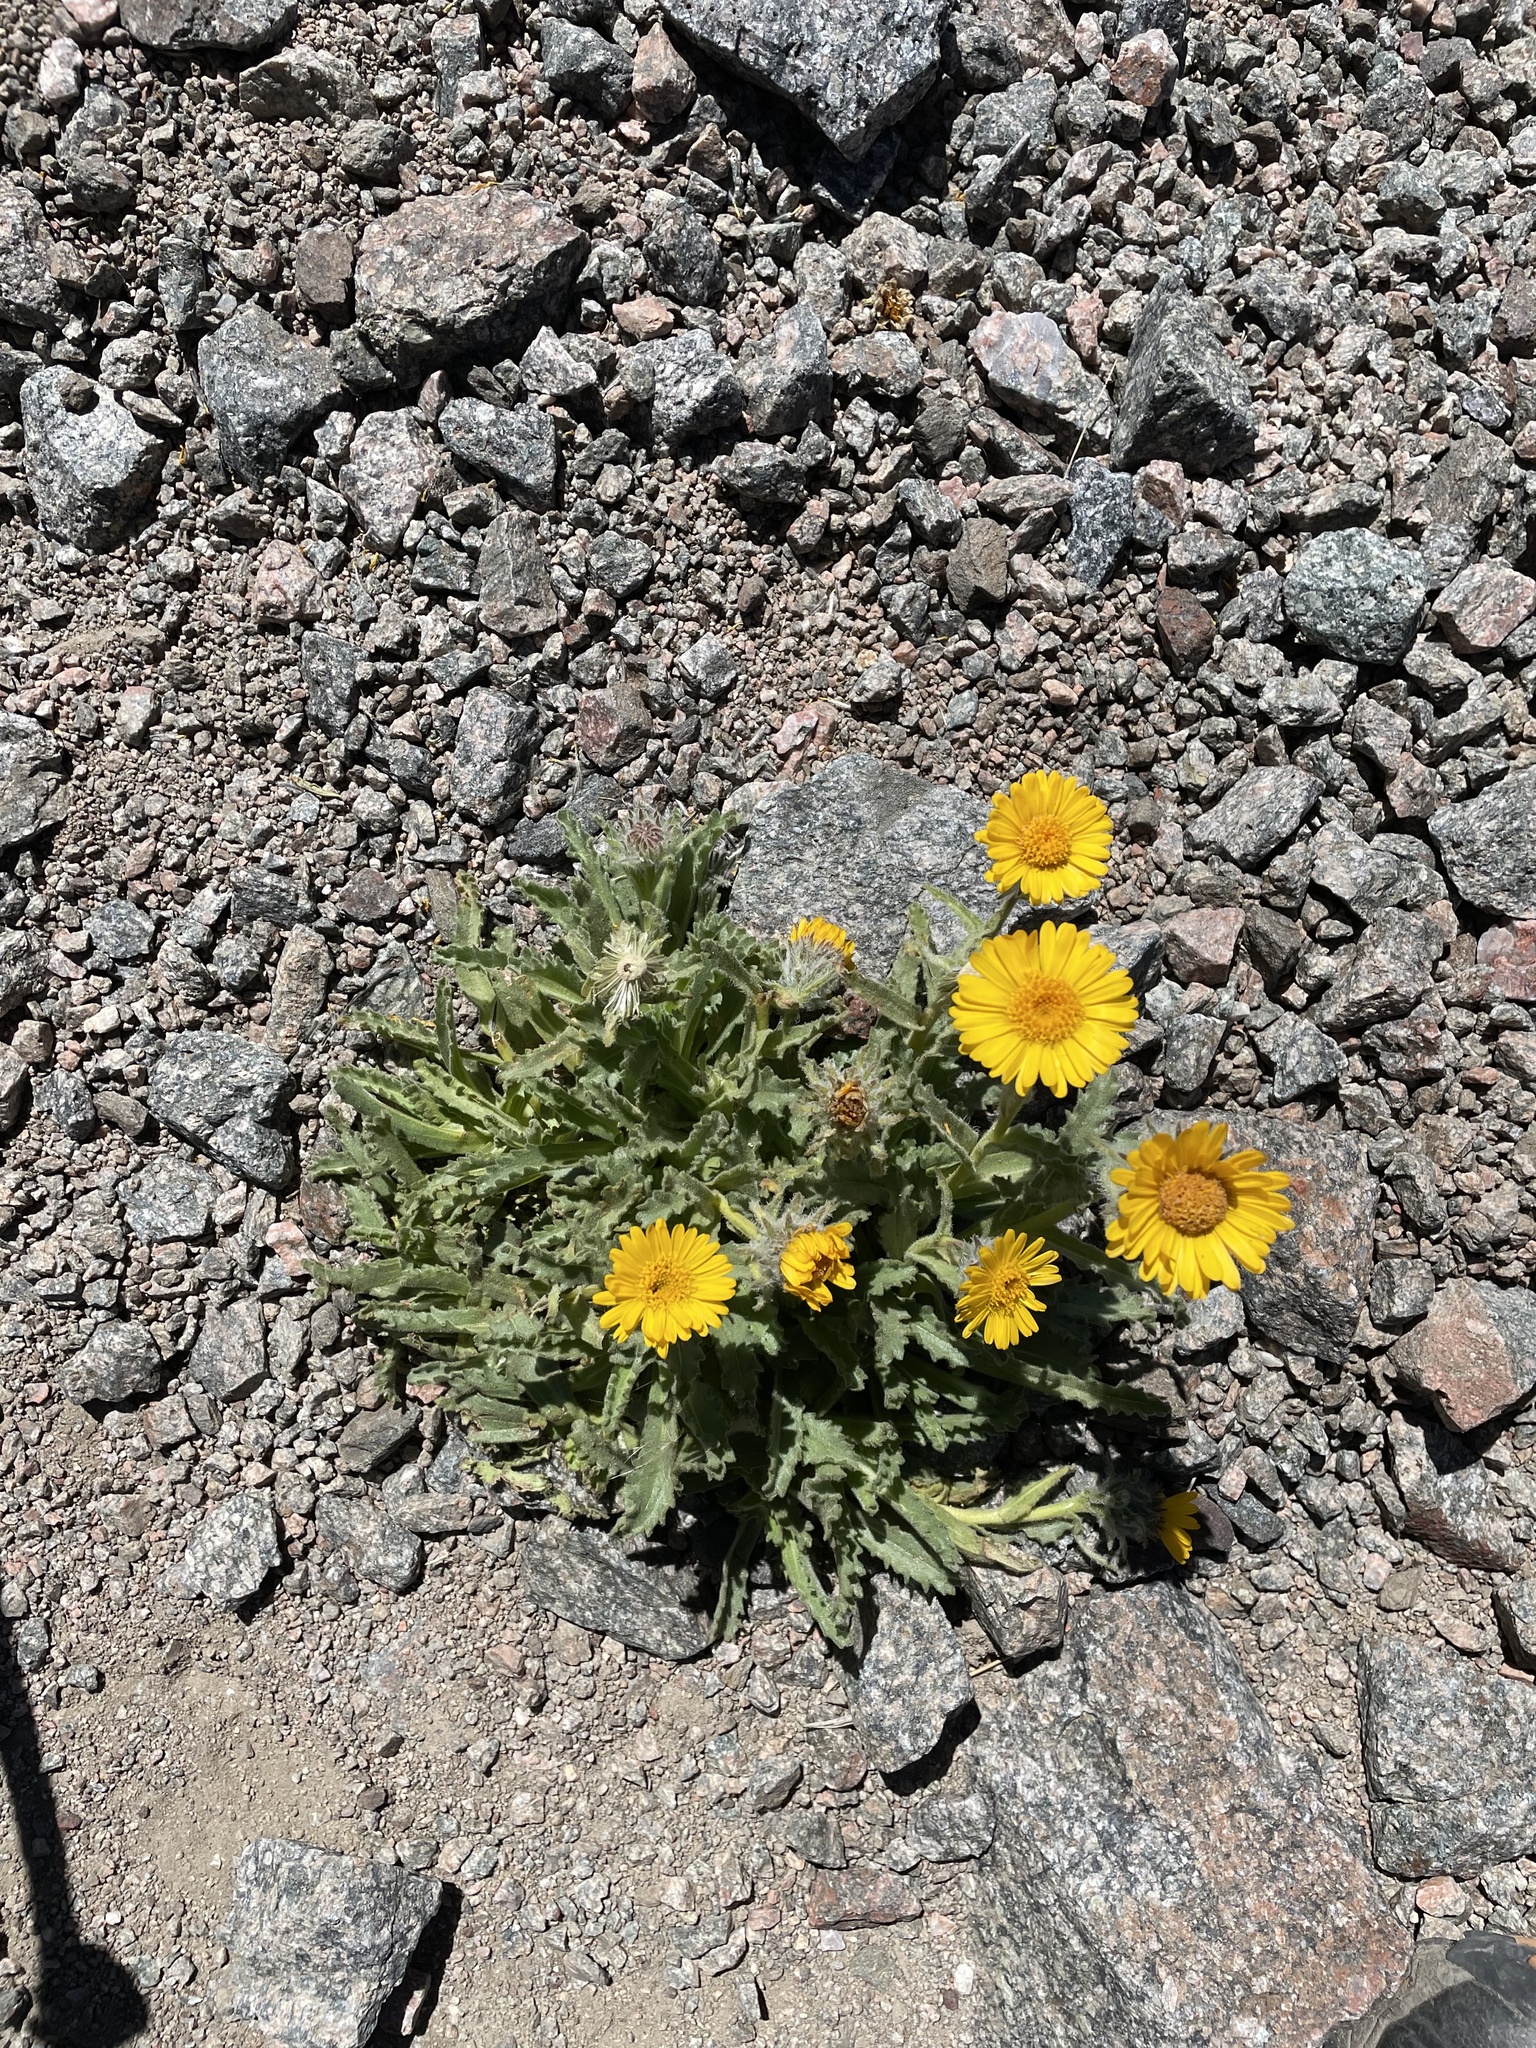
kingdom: Plantae
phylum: Tracheophyta
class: Magnoliopsida
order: Asterales
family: Asteraceae
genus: Hulsea
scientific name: Hulsea algida
